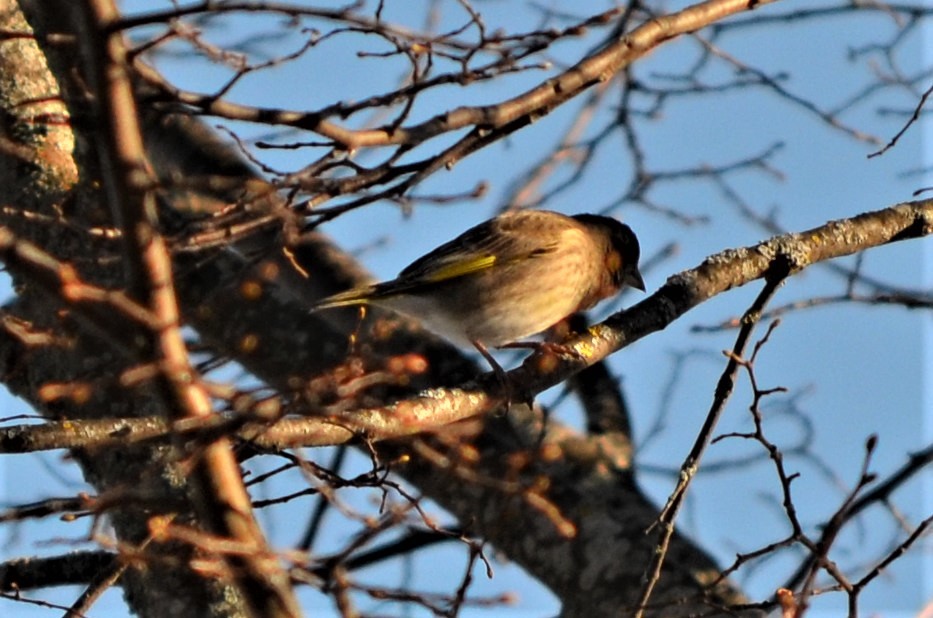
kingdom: Plantae
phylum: Tracheophyta
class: Liliopsida
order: Poales
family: Poaceae
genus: Chloris
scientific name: Chloris chloris
